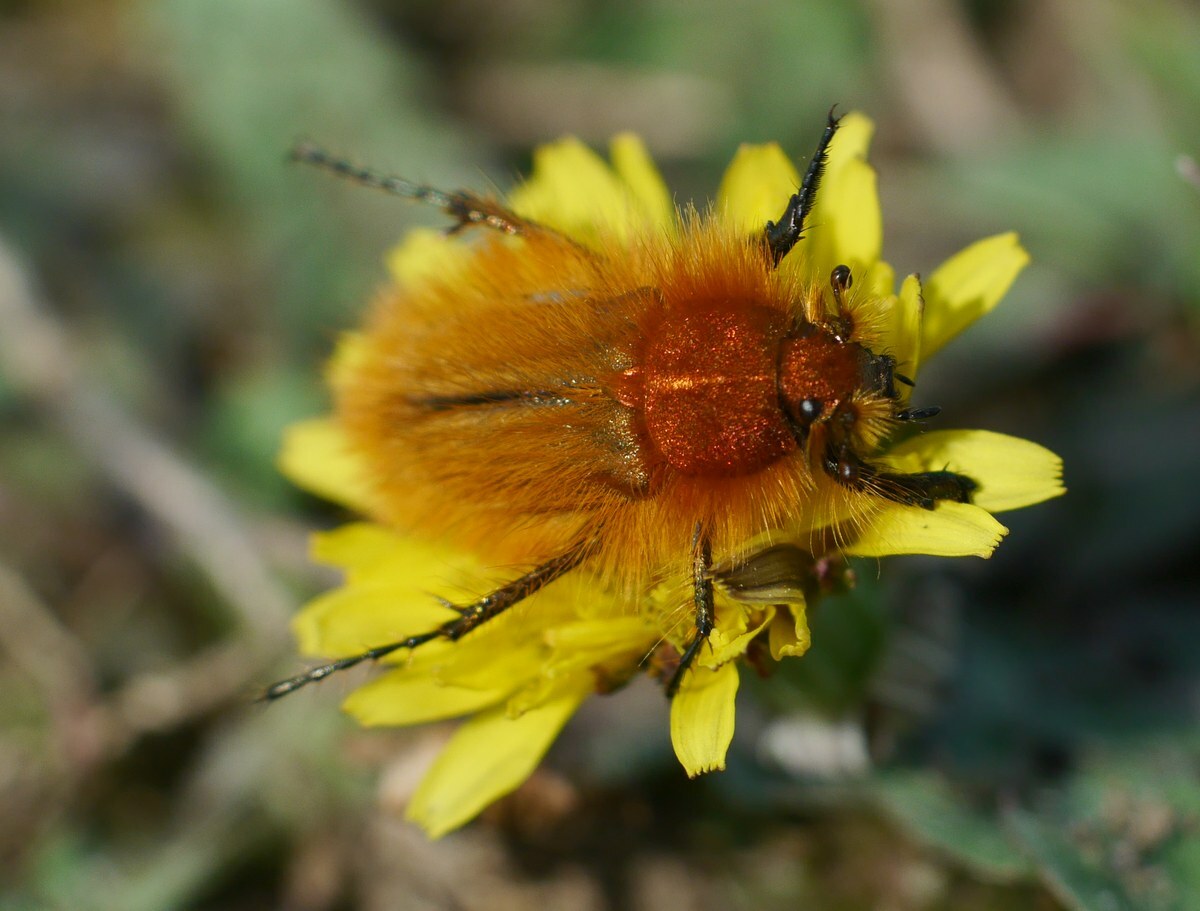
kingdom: Animalia
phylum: Arthropoda
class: Insecta
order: Coleoptera
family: Glaphyridae
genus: Pygopleurus
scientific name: Pygopleurus vulpes
